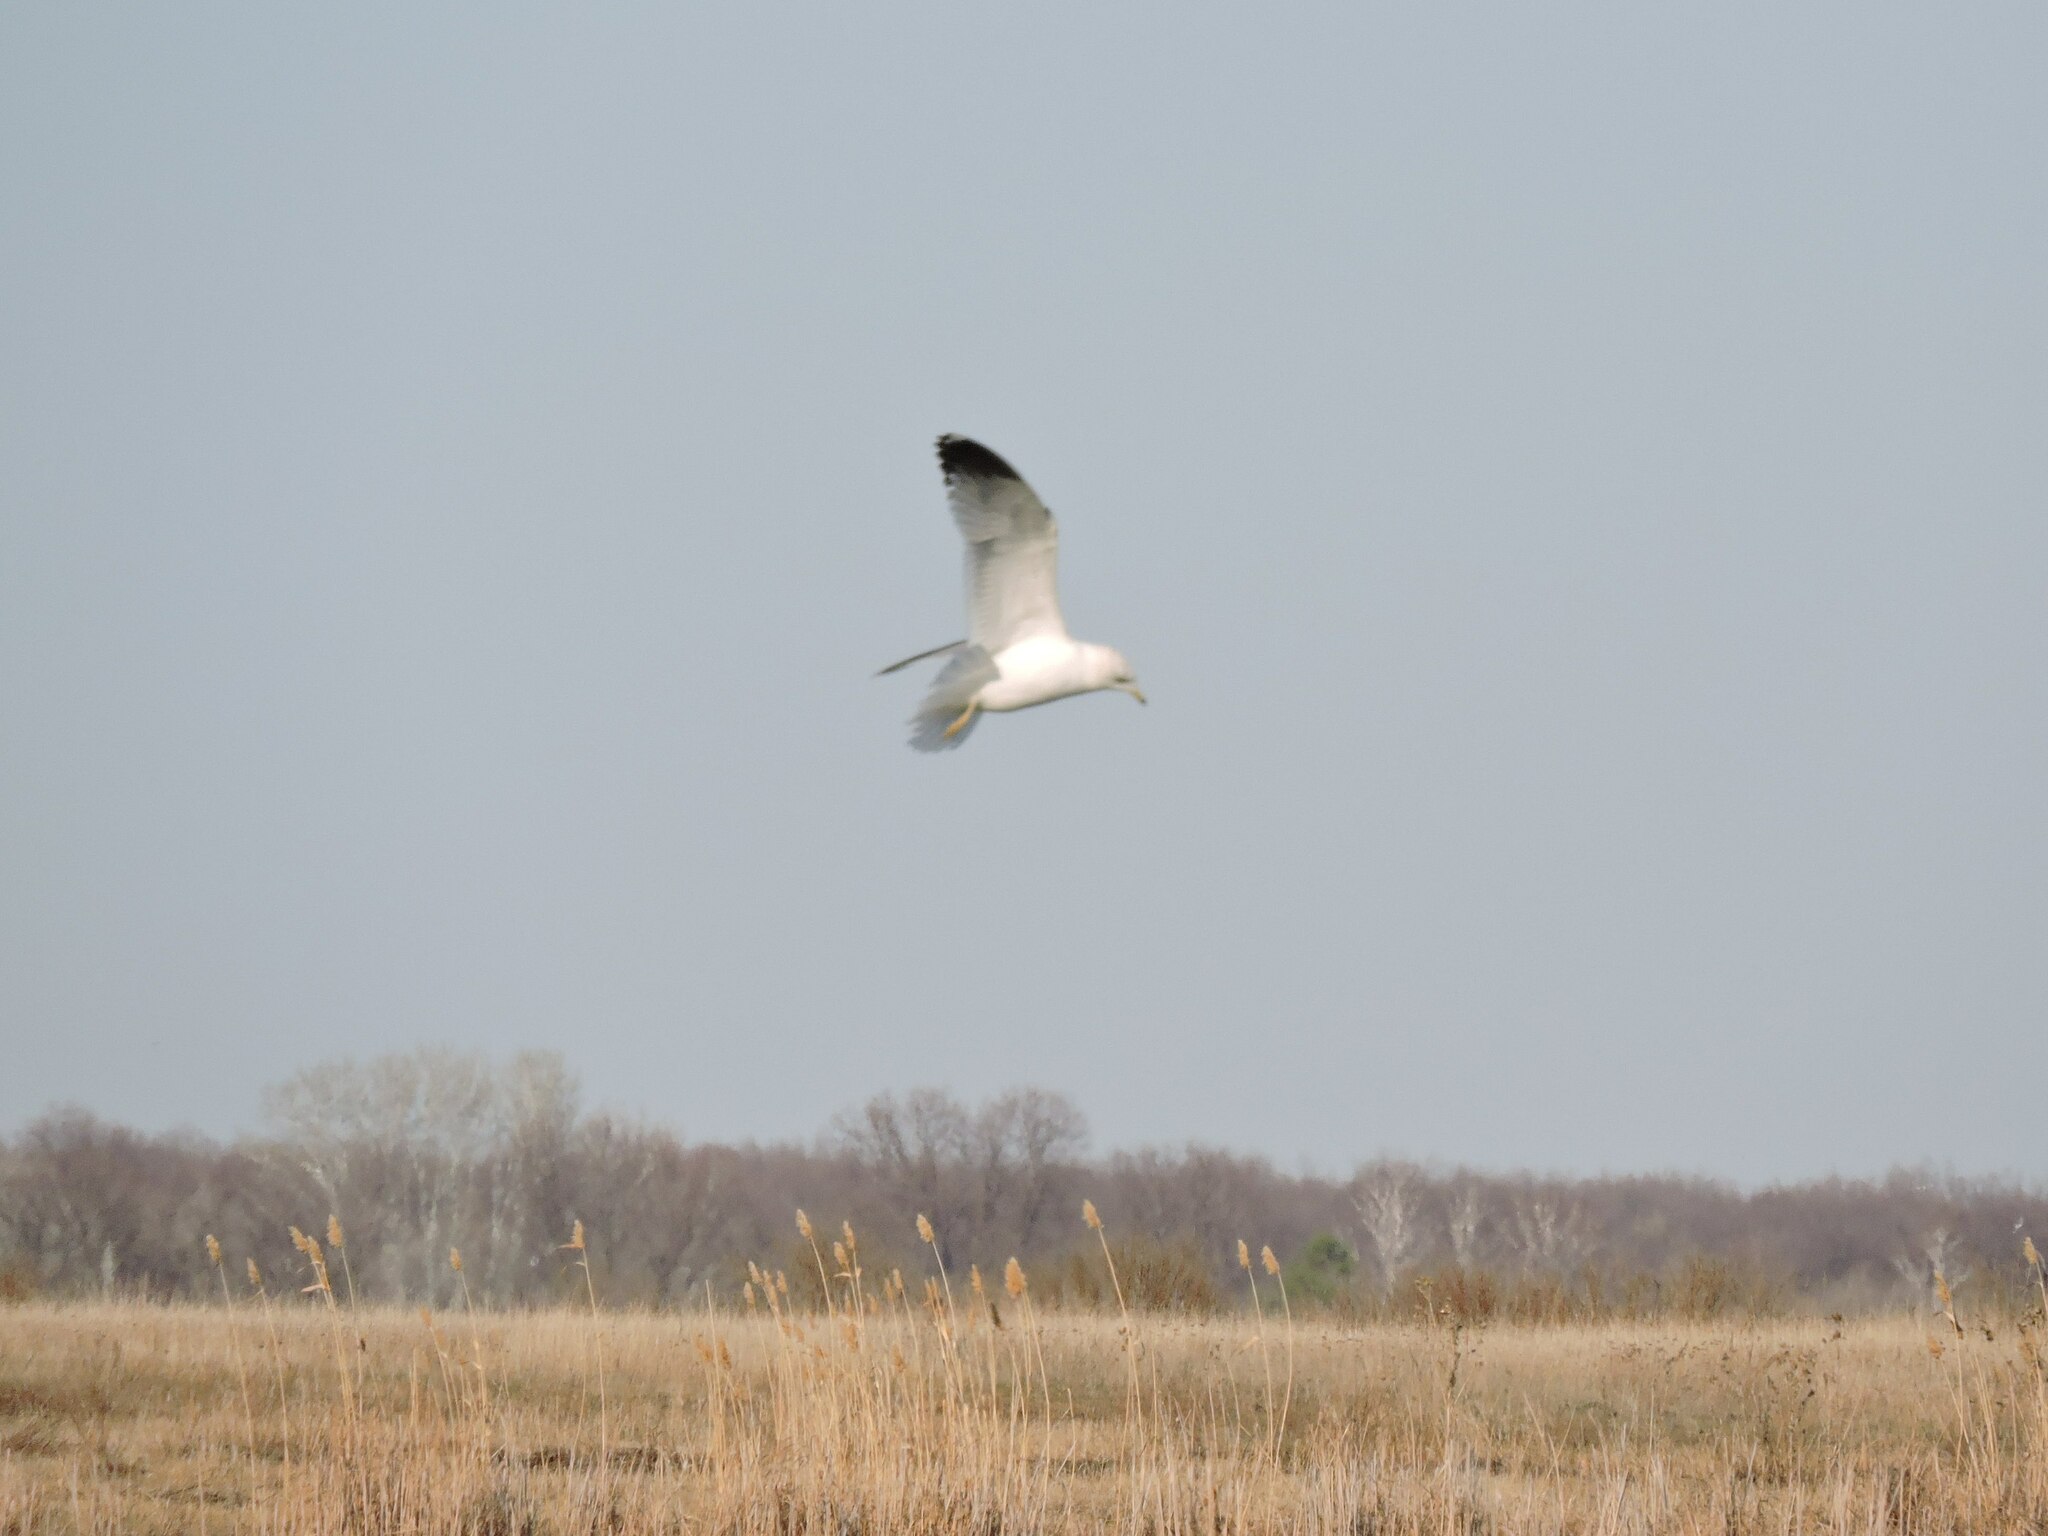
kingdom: Animalia
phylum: Chordata
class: Aves
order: Charadriiformes
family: Laridae
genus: Larus
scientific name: Larus canus
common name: Mew gull
